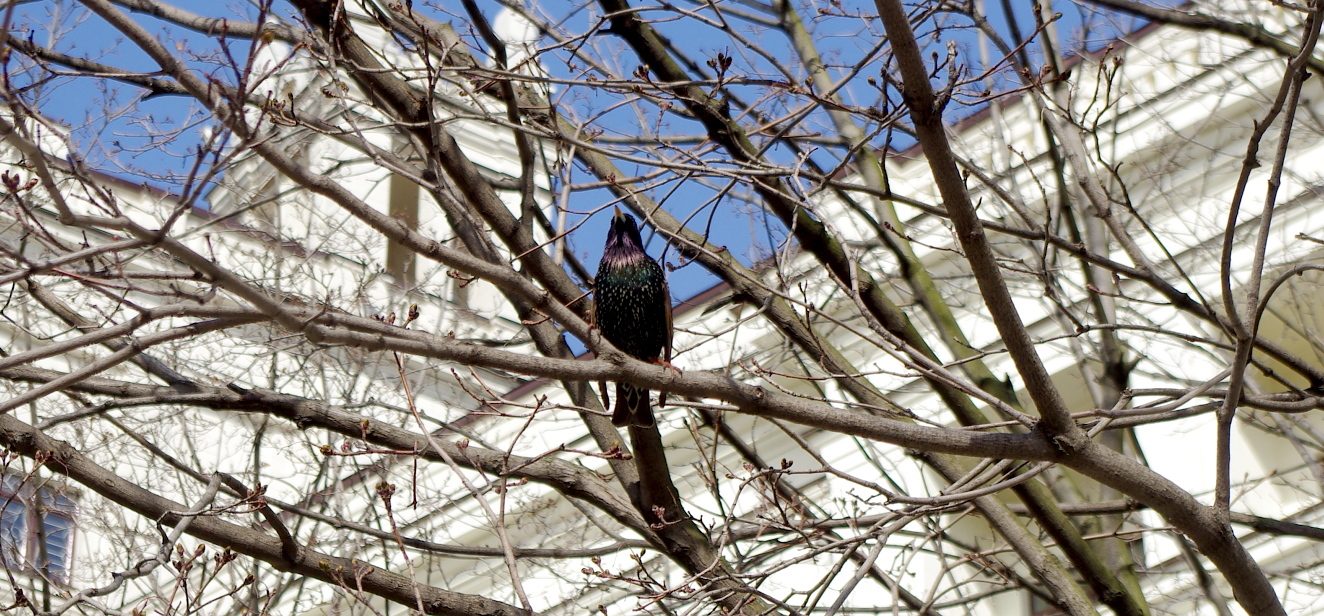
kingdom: Animalia
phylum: Chordata
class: Aves
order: Passeriformes
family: Sturnidae
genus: Sturnus
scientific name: Sturnus vulgaris
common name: Common starling
